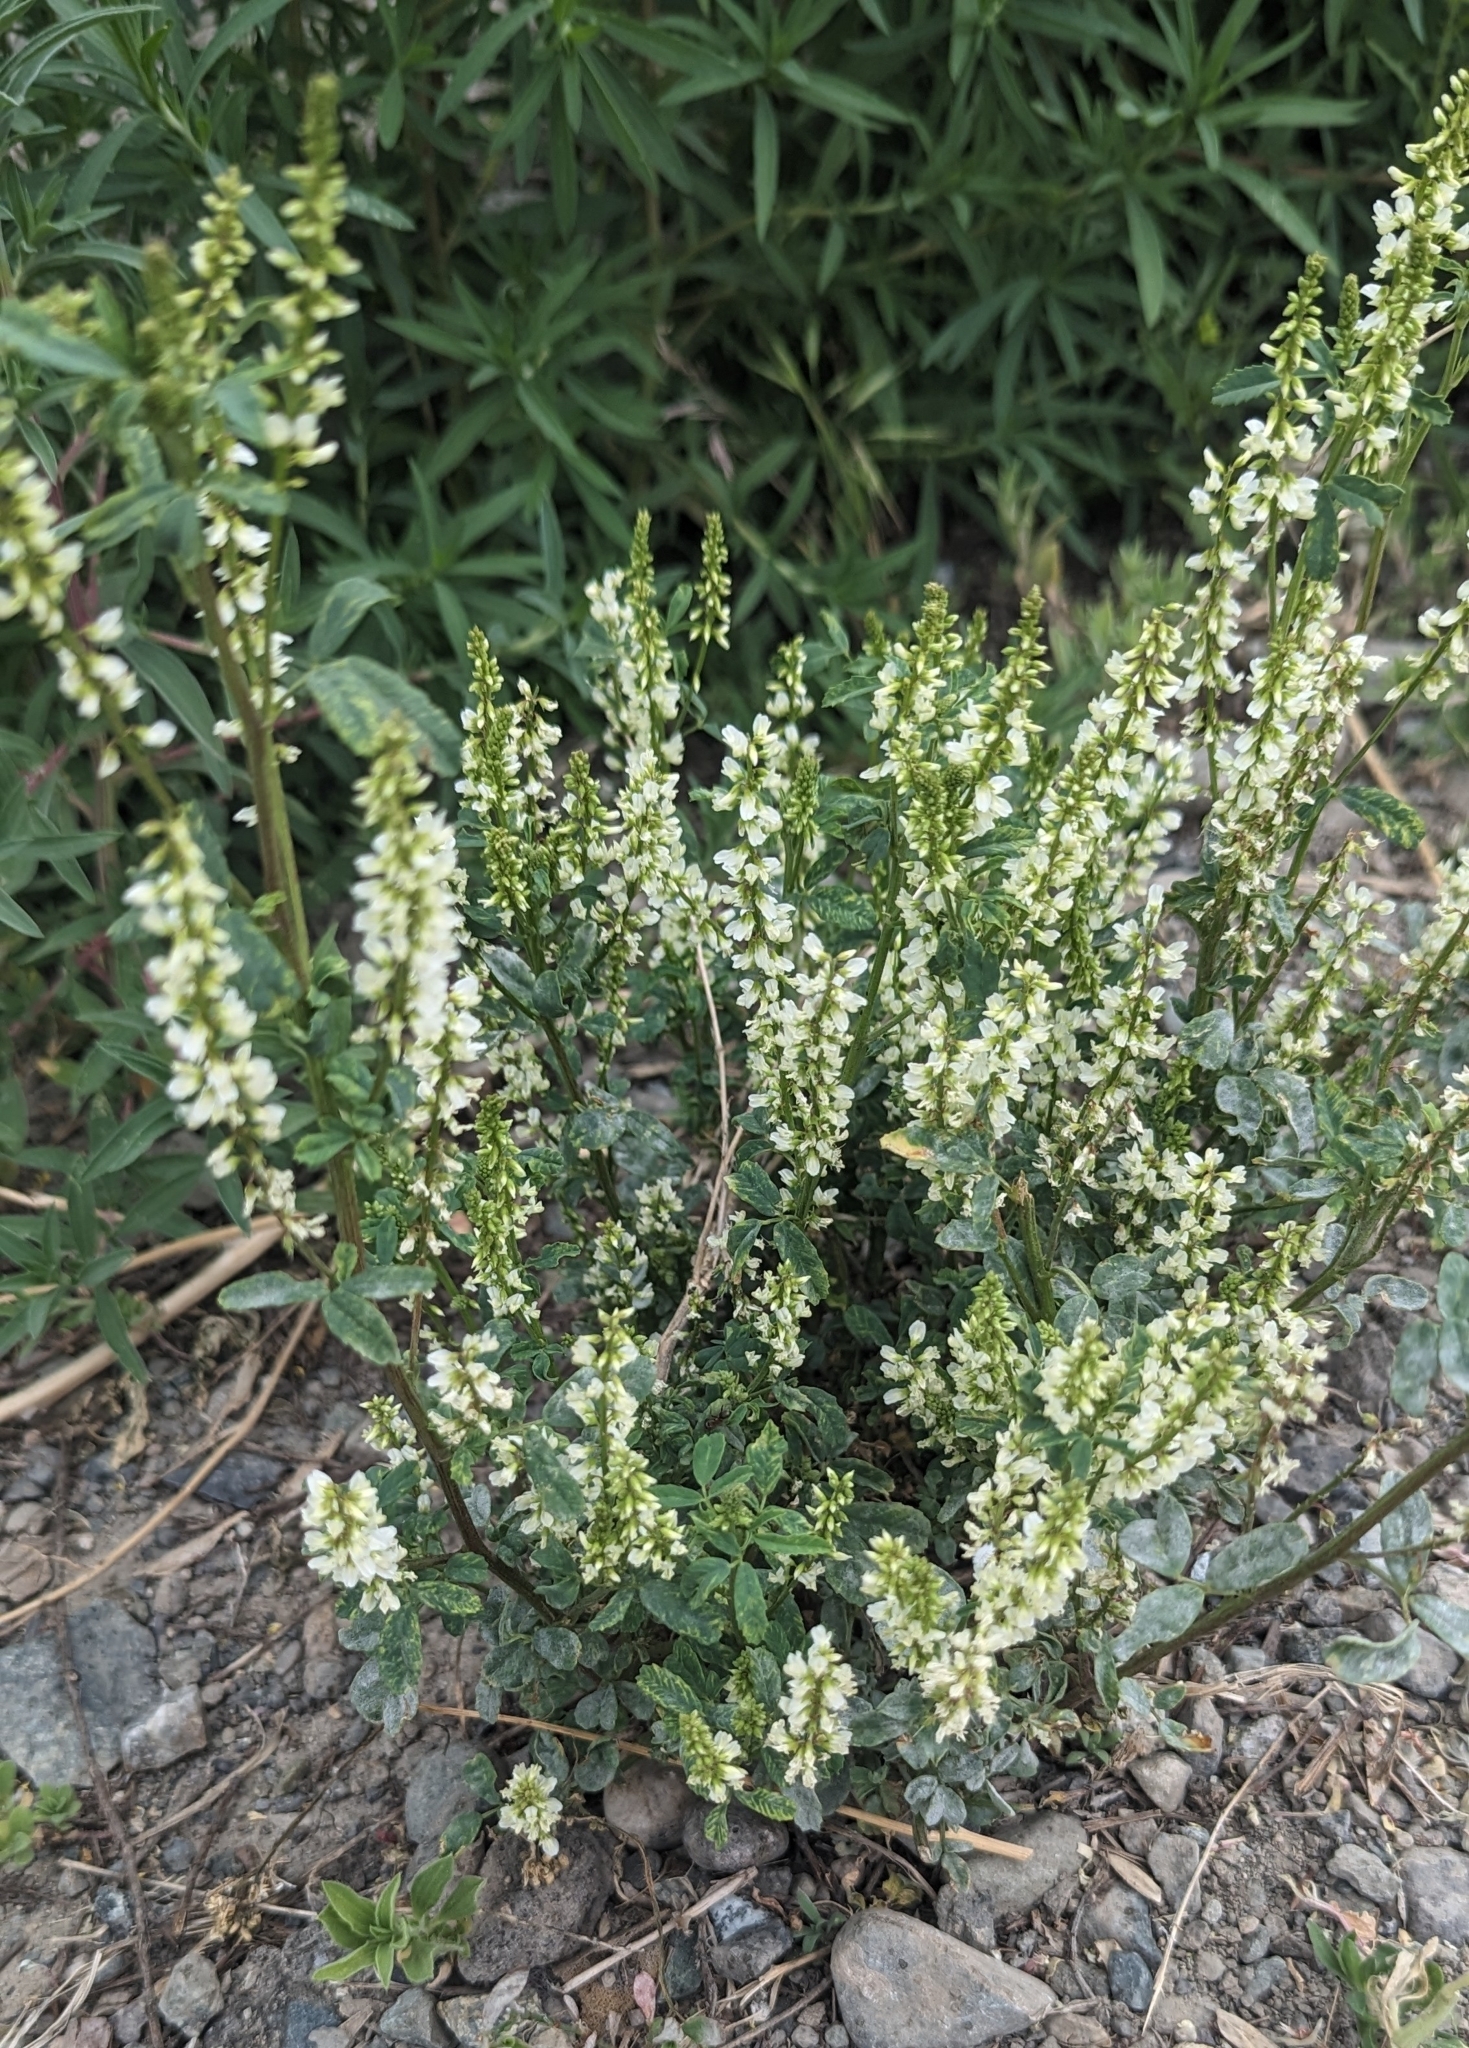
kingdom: Plantae
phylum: Tracheophyta
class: Magnoliopsida
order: Fabales
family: Fabaceae
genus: Melilotus
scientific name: Melilotus albus
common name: White melilot
